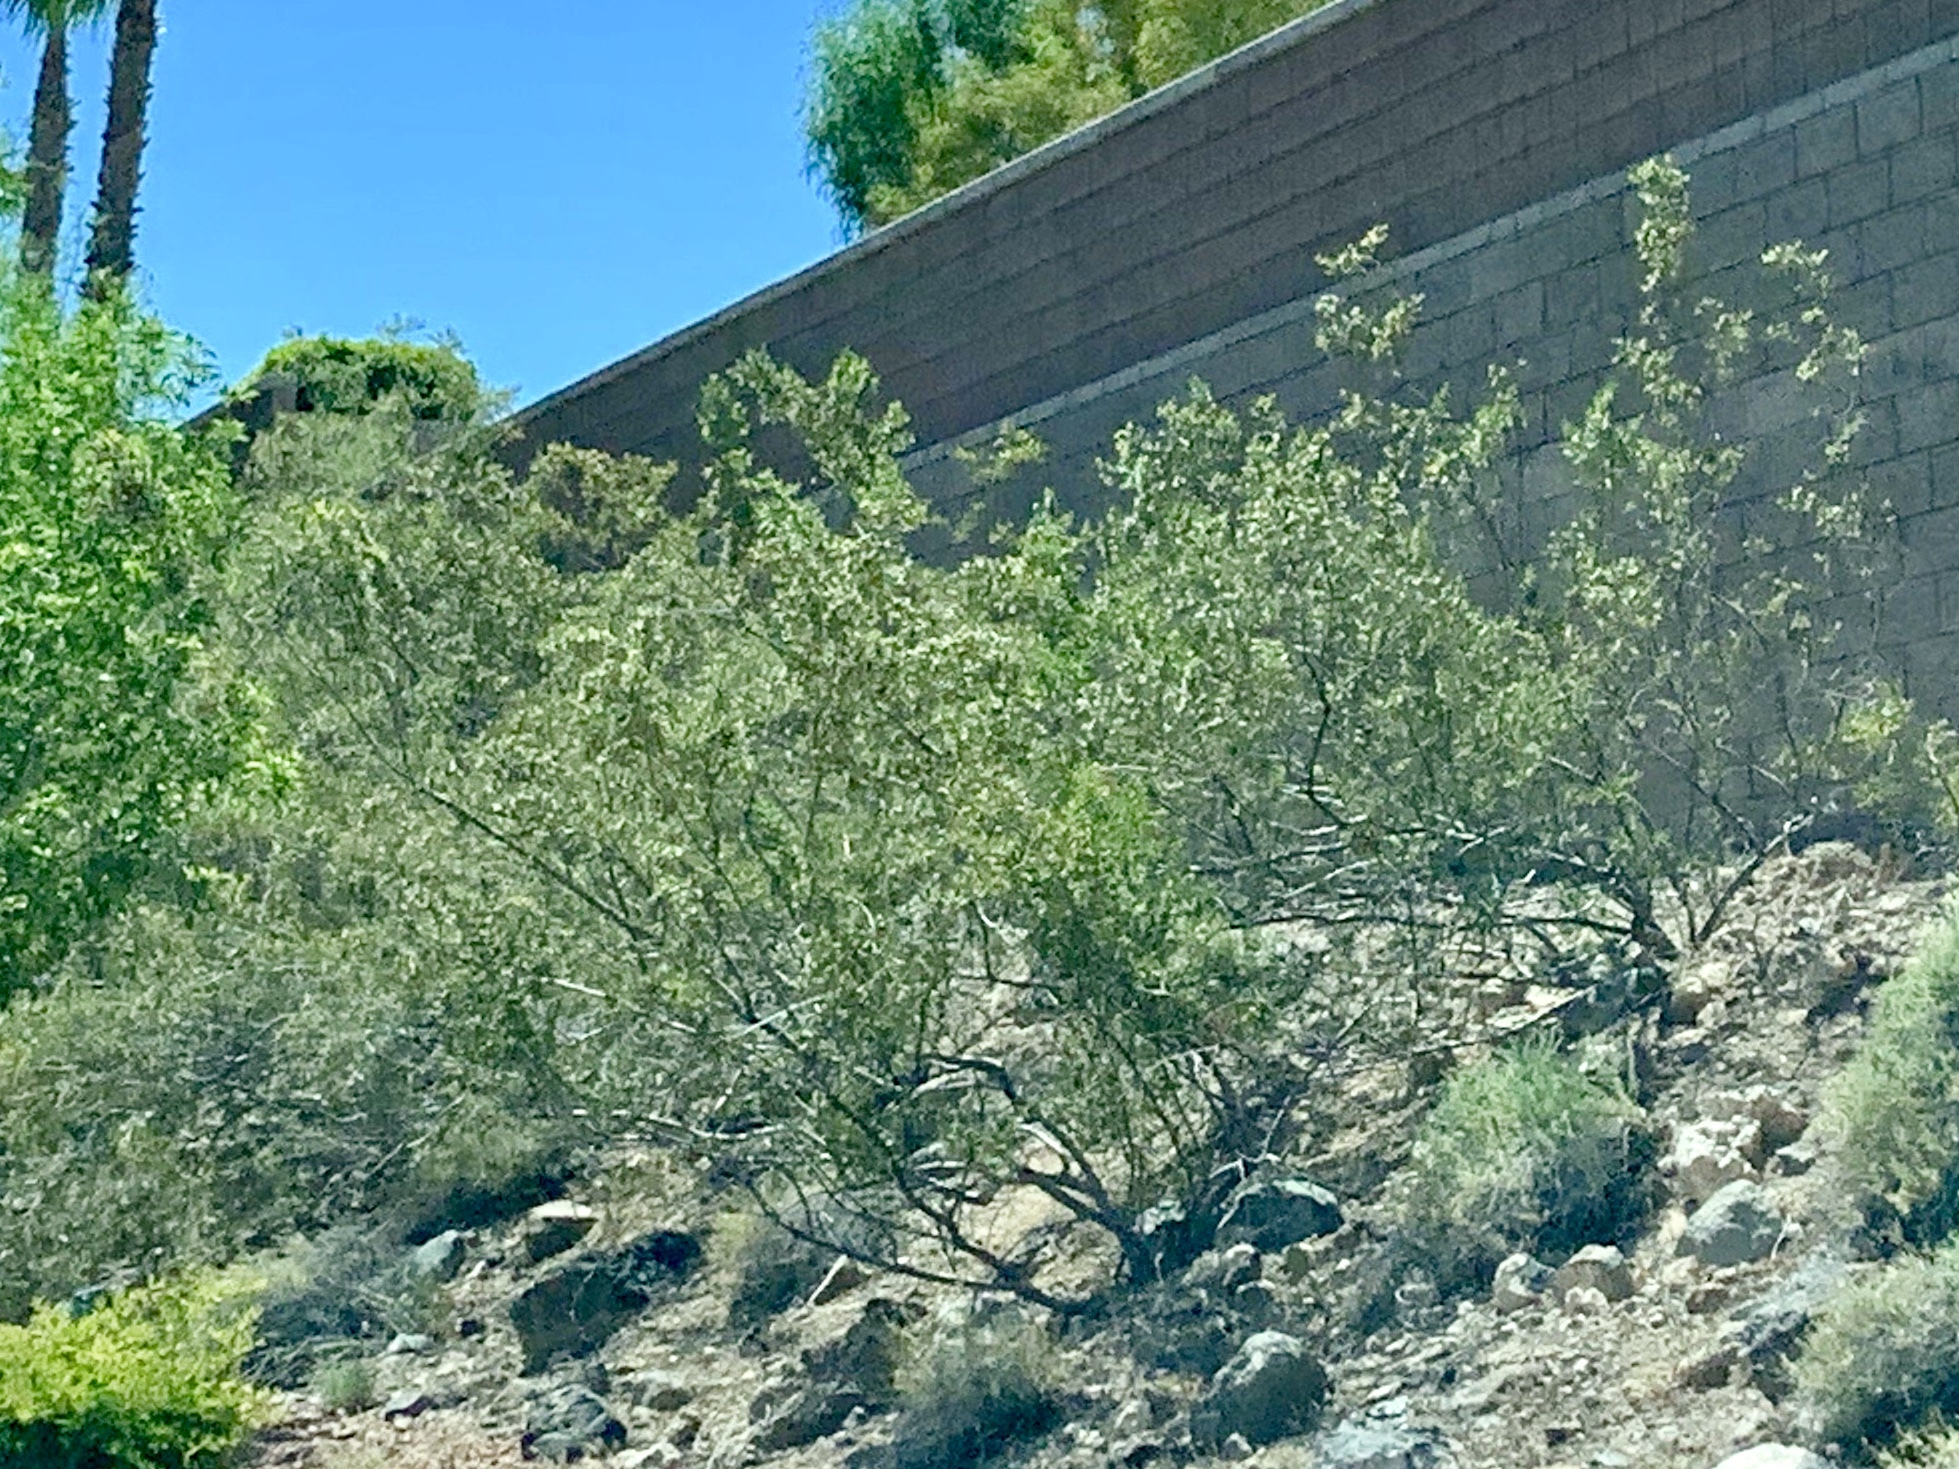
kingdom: Plantae
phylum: Tracheophyta
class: Magnoliopsida
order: Zygophyllales
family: Zygophyllaceae
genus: Larrea
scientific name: Larrea tridentata
